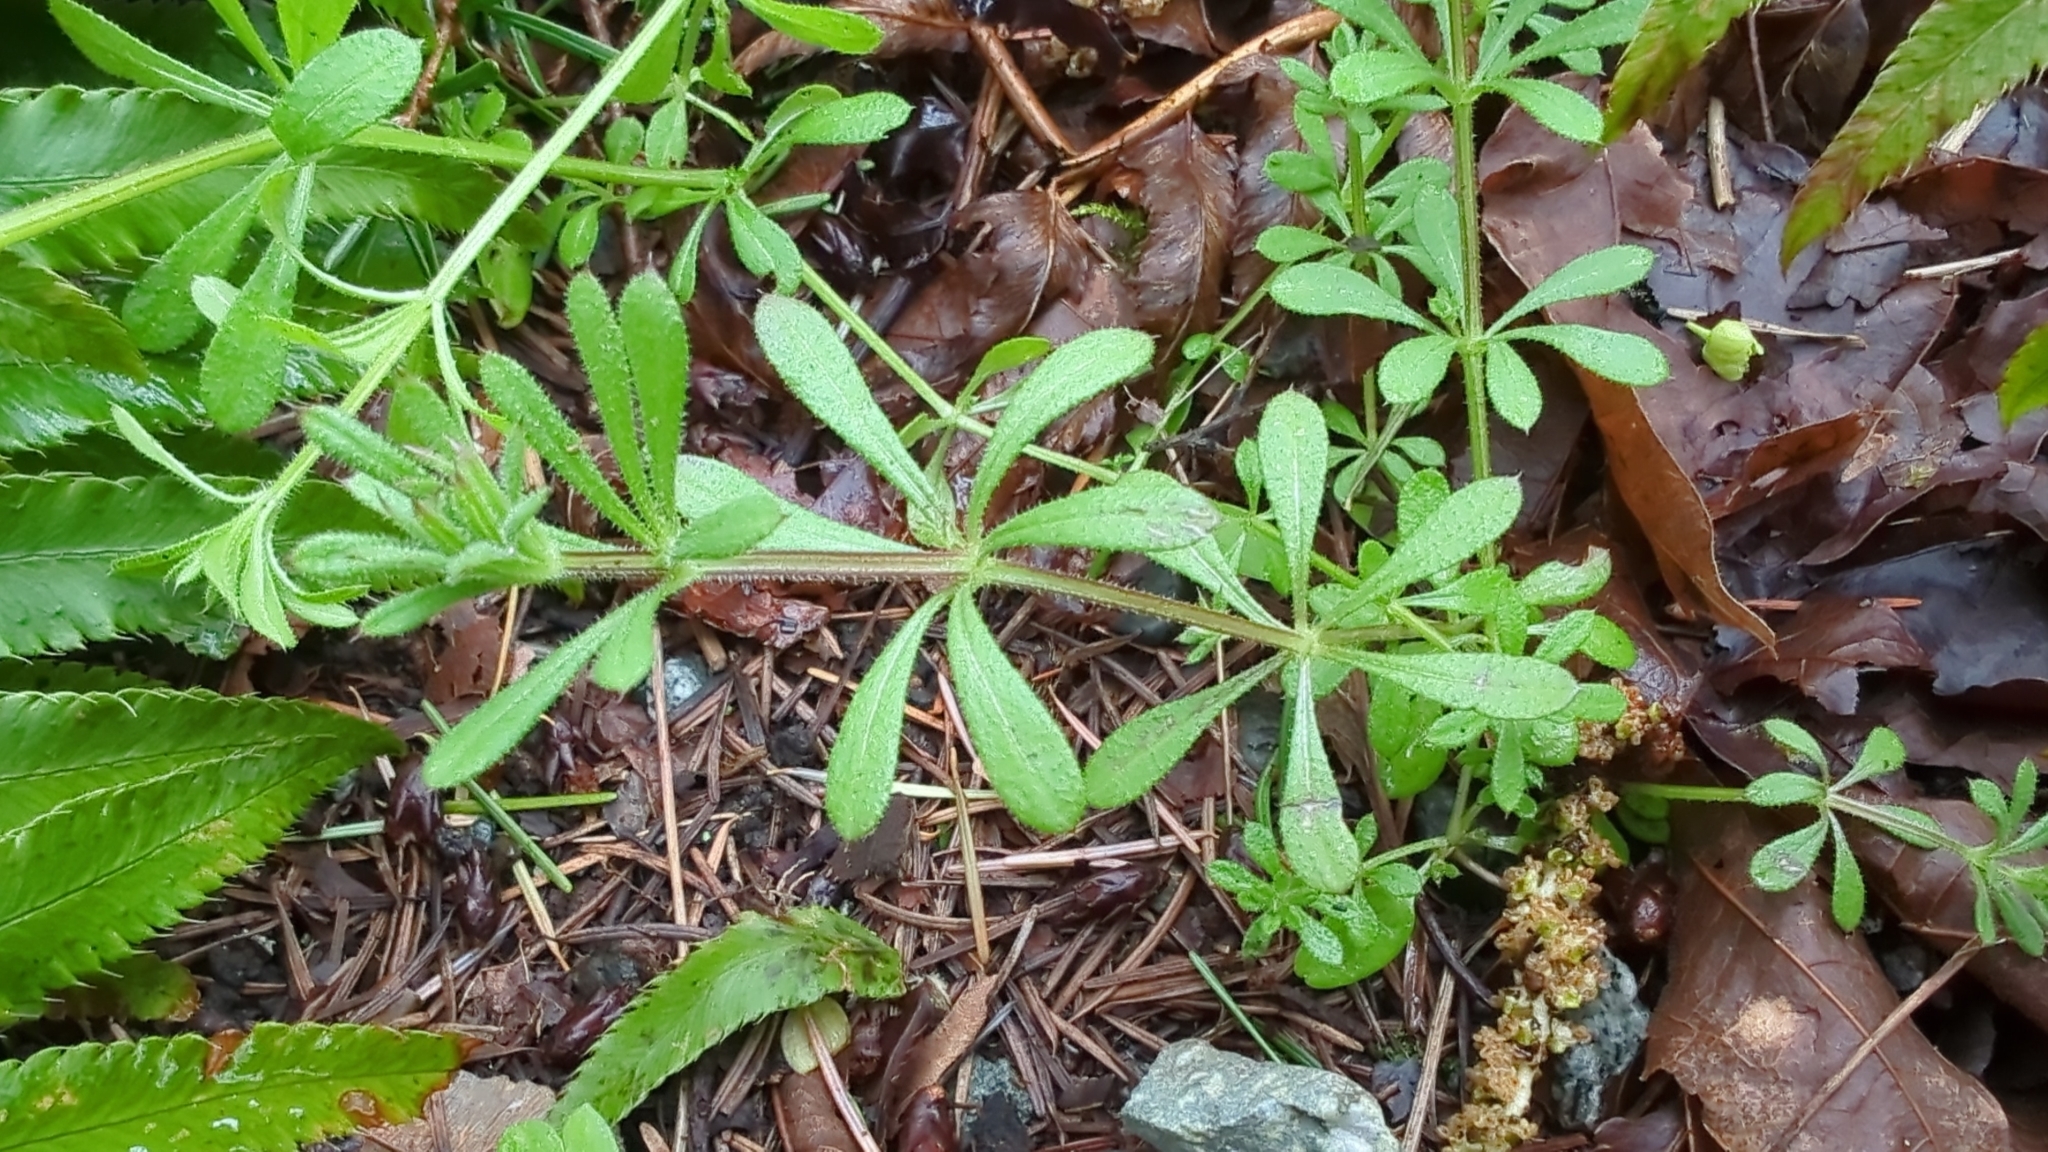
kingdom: Plantae
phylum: Tracheophyta
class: Magnoliopsida
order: Gentianales
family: Rubiaceae
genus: Galium
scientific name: Galium aparine
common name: Cleavers
